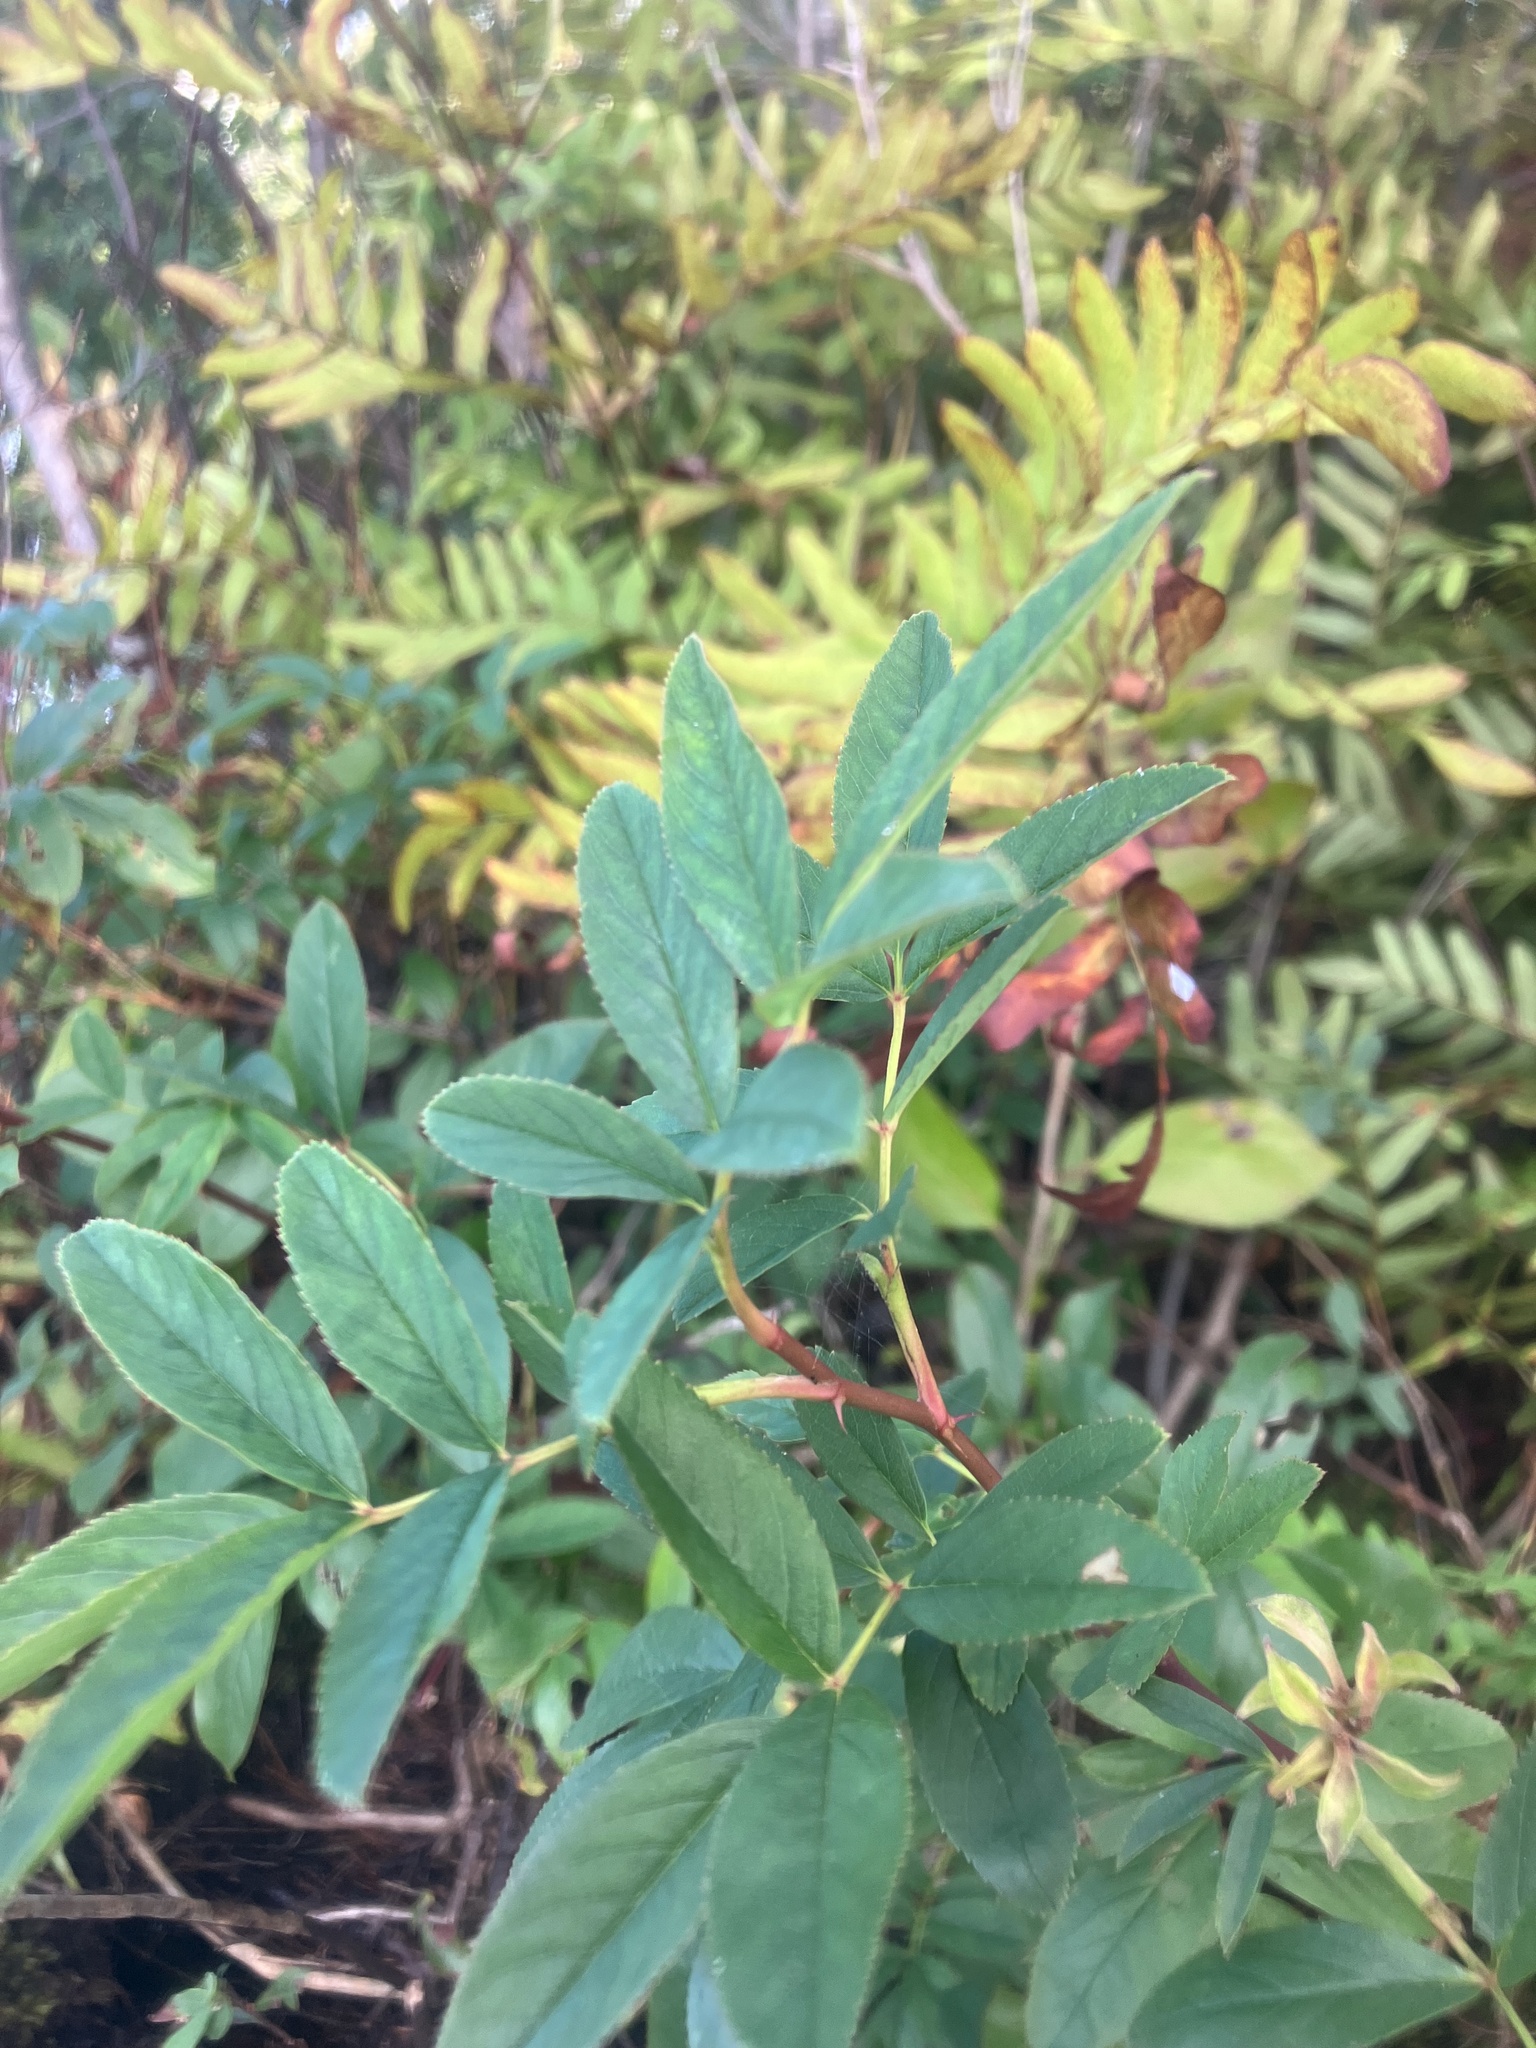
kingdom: Plantae
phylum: Tracheophyta
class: Magnoliopsida
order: Rosales
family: Rosaceae
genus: Rosa
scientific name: Rosa palustris
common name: Swamp rose
